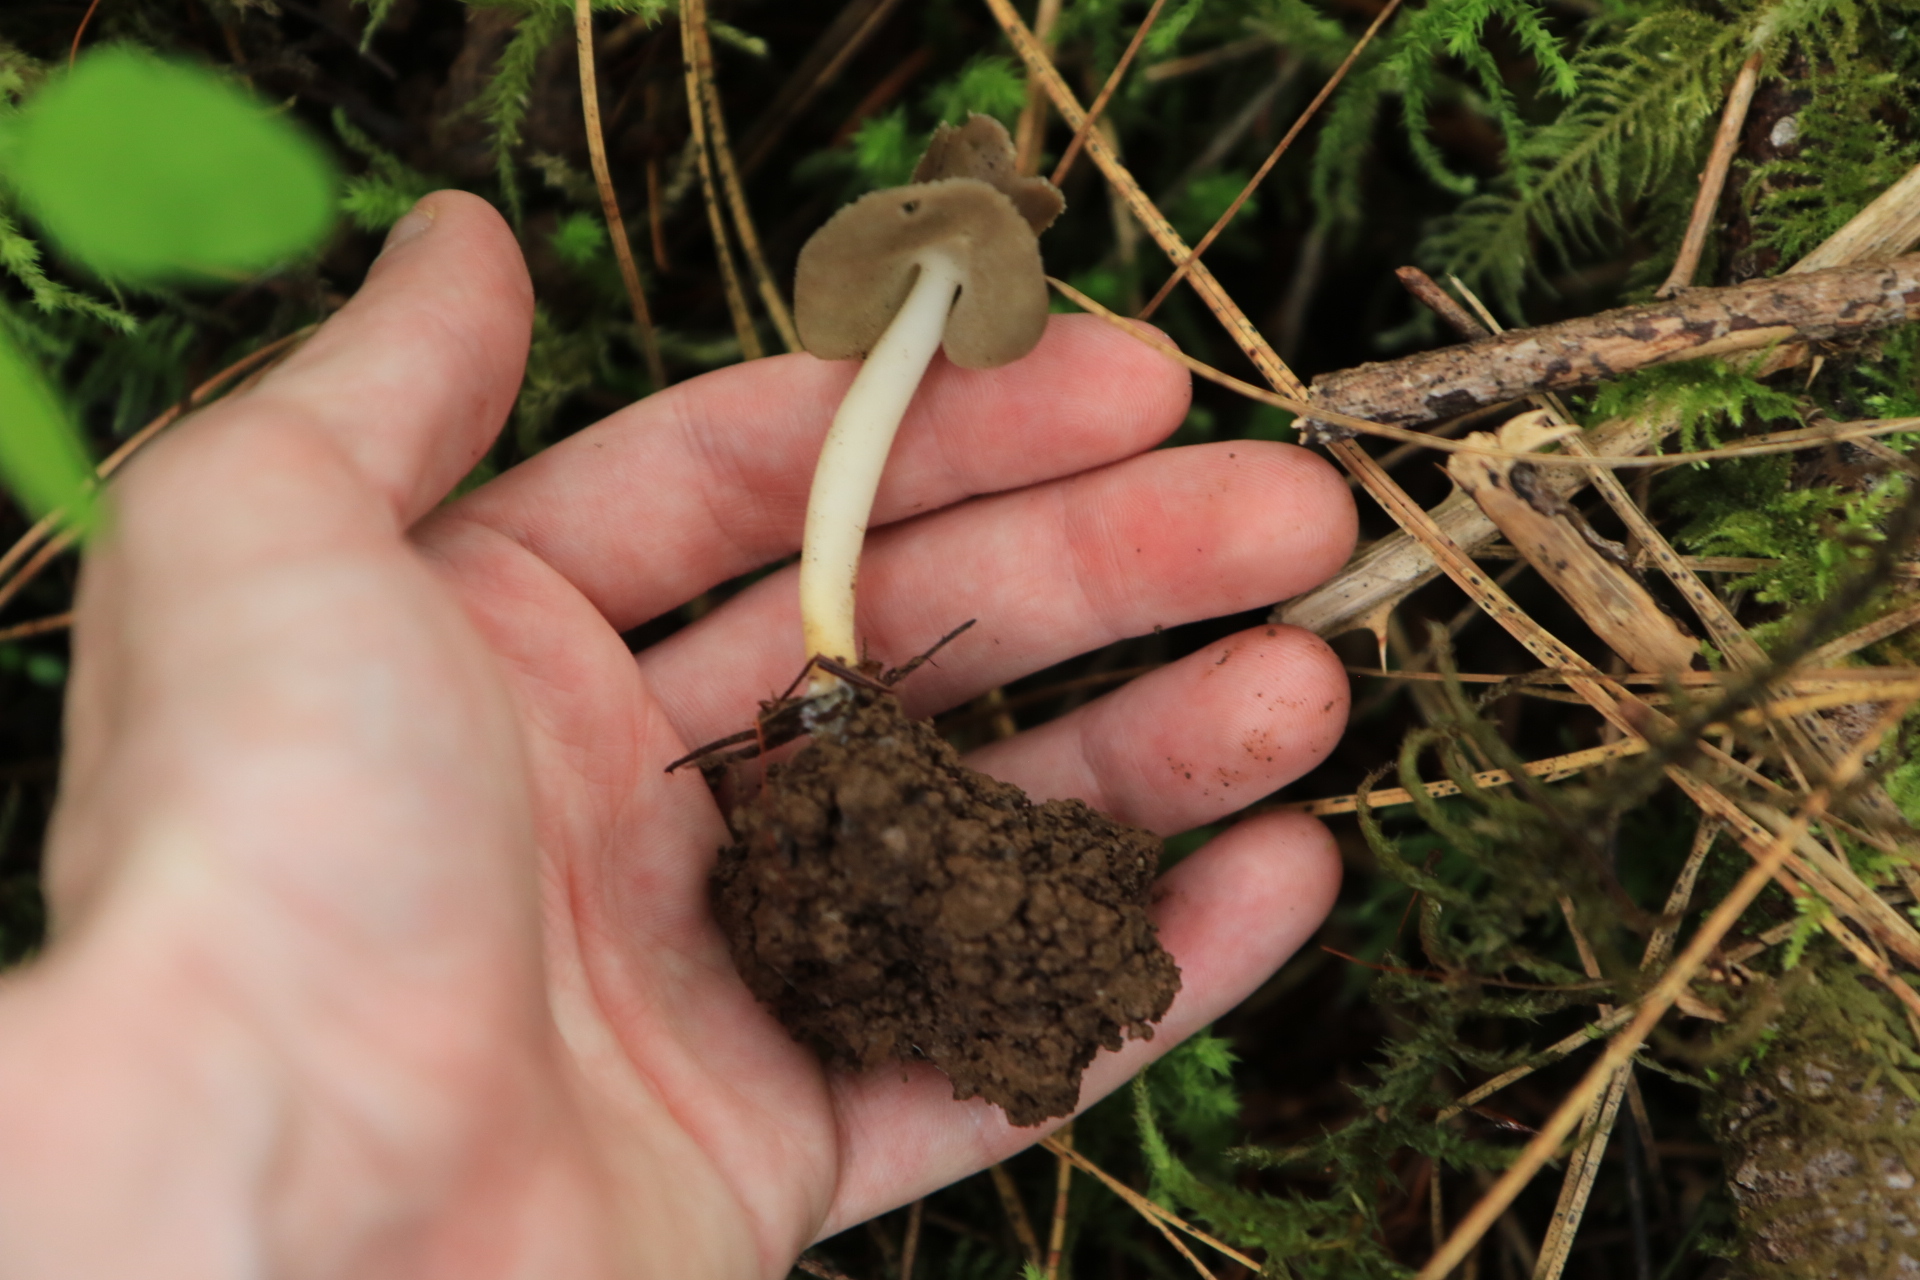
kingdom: Fungi
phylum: Ascomycota
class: Pezizomycetes
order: Pezizales
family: Helvellaceae
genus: Helvella
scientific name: Helvella compressa
